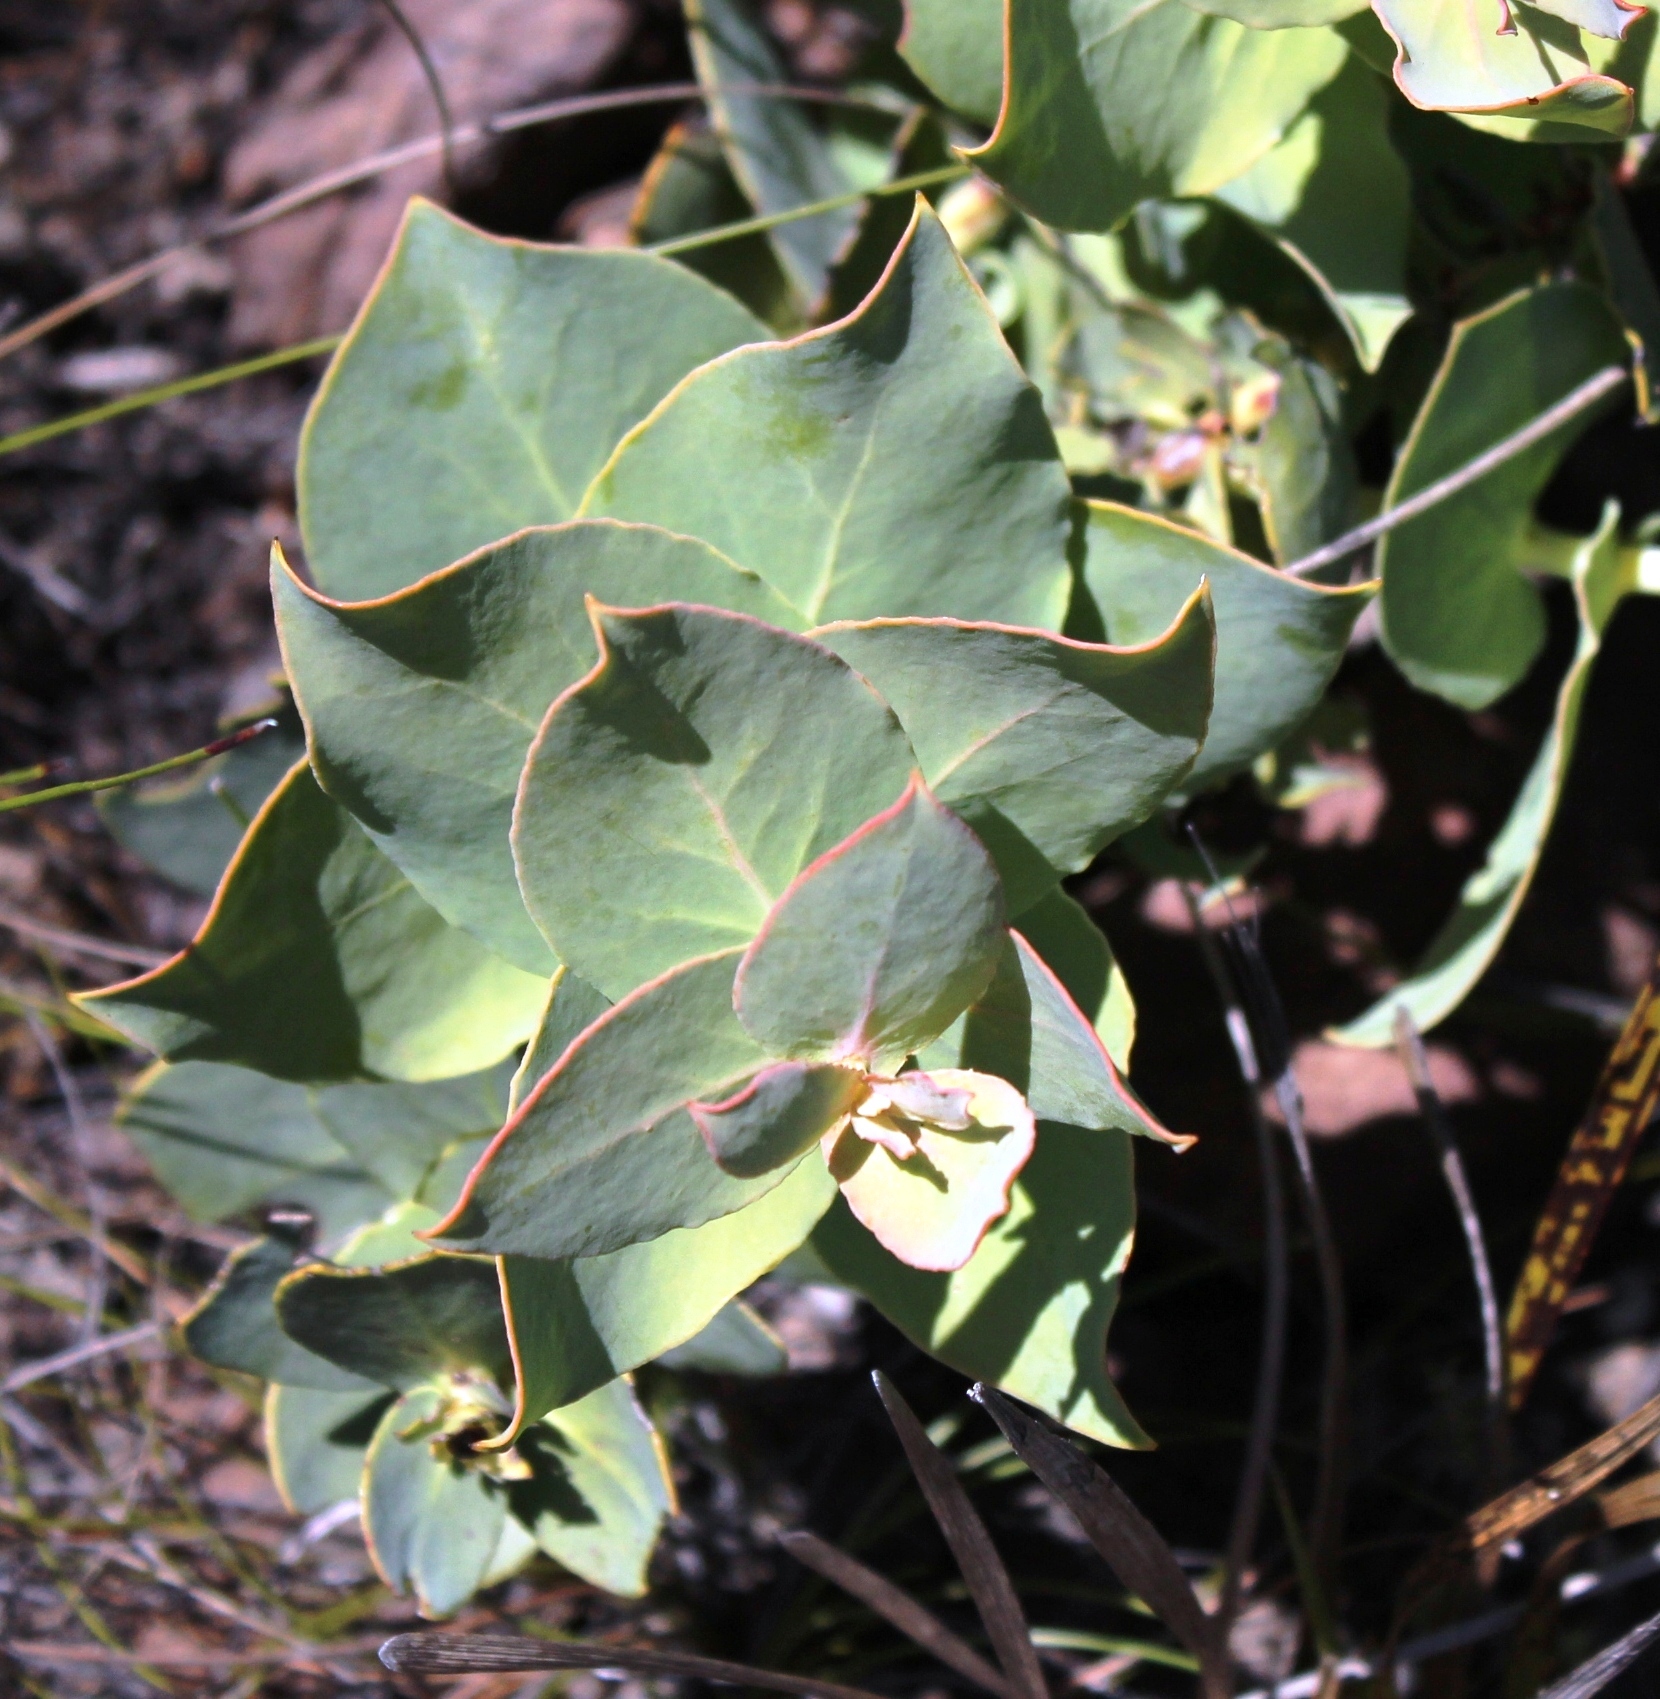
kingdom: Plantae
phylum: Tracheophyta
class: Magnoliopsida
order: Proteales
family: Proteaceae
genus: Protea
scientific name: Protea amplexicaulis
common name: Clasping-leaf sugarbush
